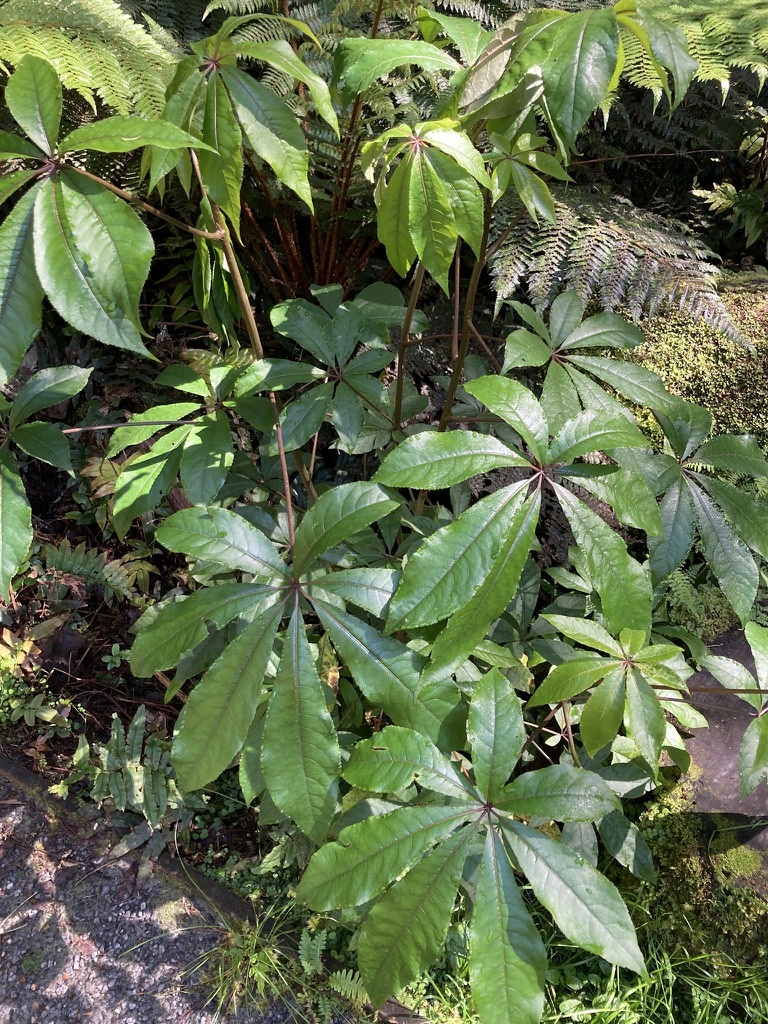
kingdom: Plantae
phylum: Tracheophyta
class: Magnoliopsida
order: Apiales
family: Araliaceae
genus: Schefflera
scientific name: Schefflera digitata
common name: Pate
